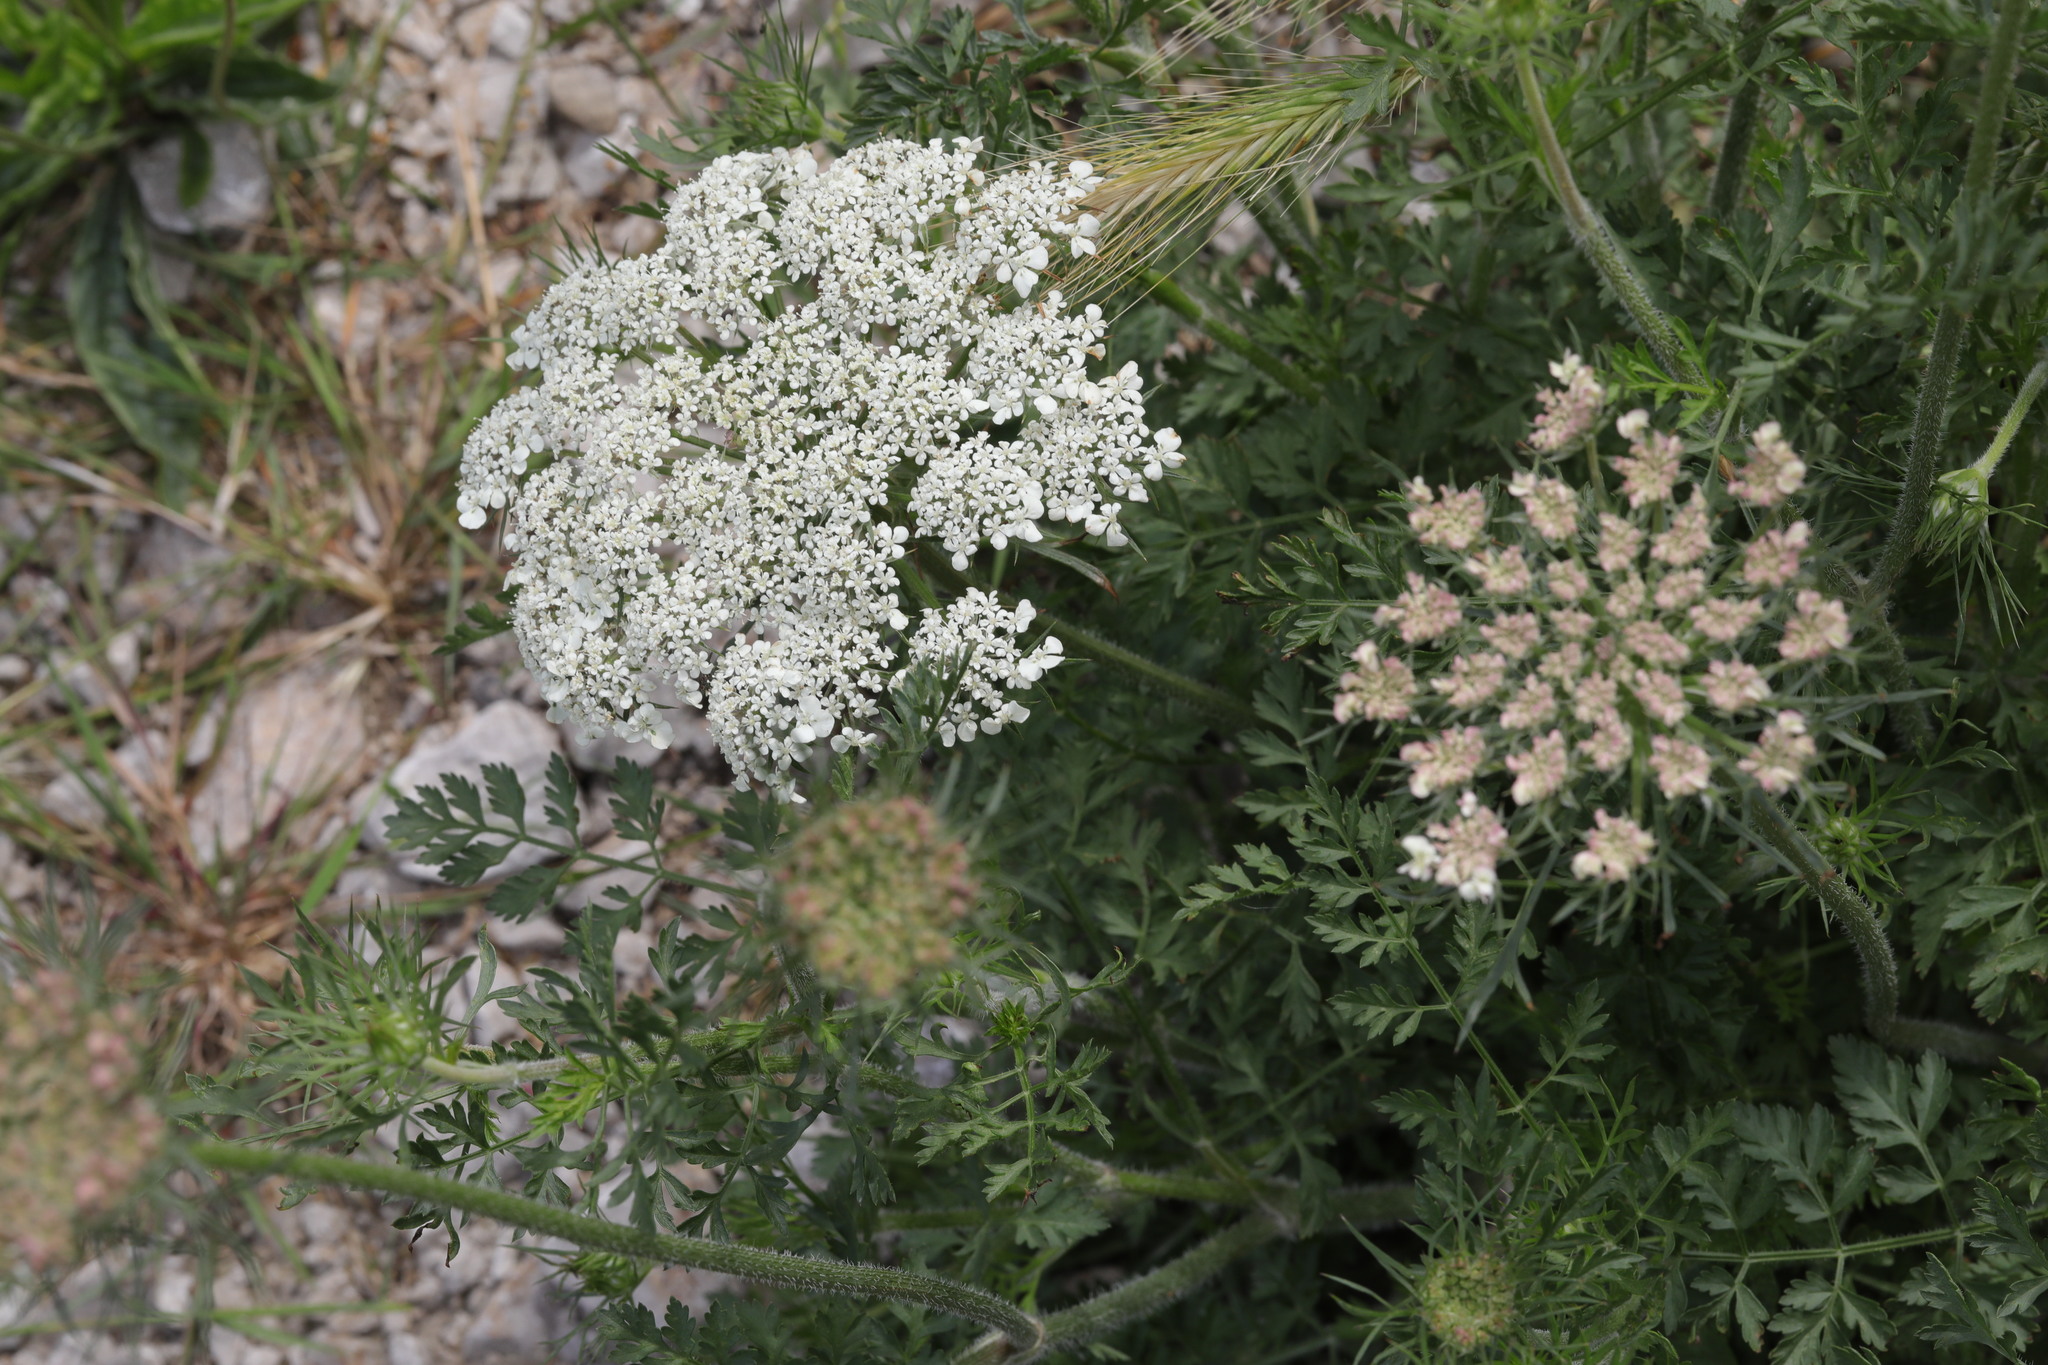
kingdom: Plantae
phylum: Tracheophyta
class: Magnoliopsida
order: Apiales
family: Apiaceae
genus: Daucus
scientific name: Daucus carota
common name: Wild carrot
